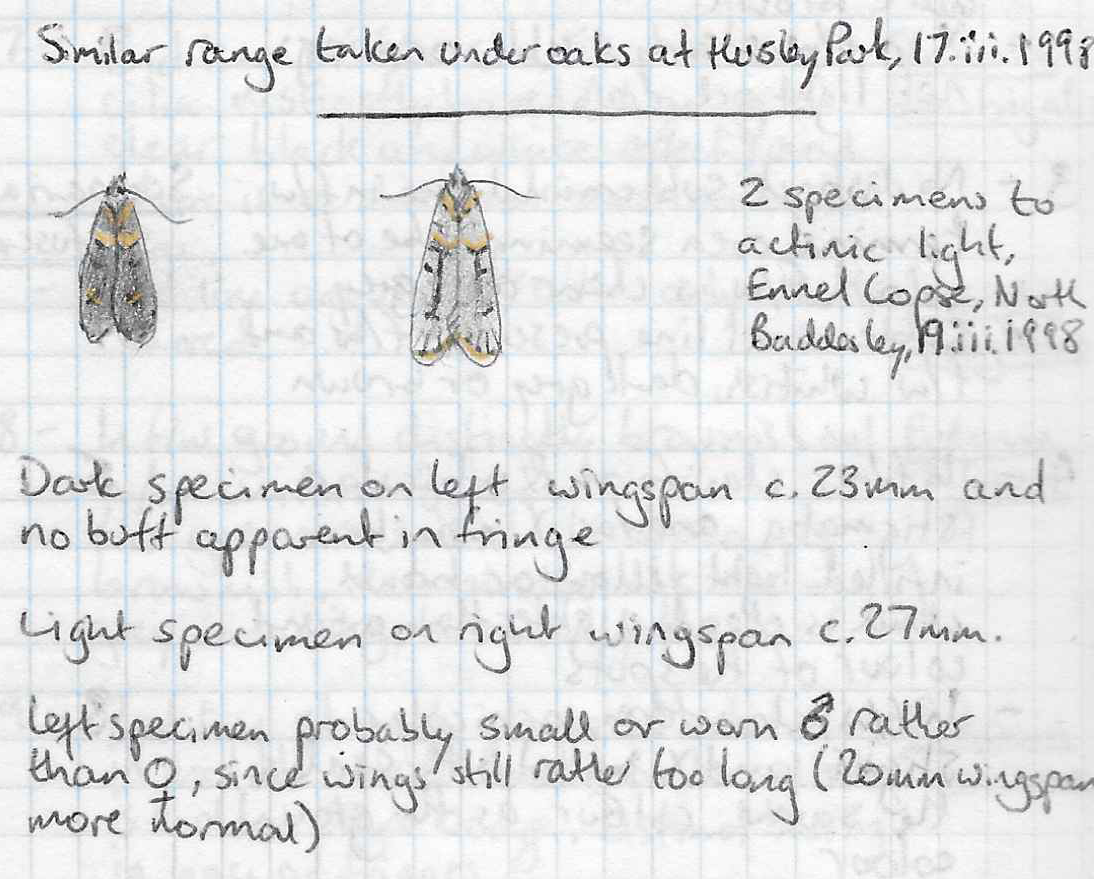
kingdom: Animalia
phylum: Arthropoda
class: Insecta
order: Lepidoptera
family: Lypusidae
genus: Diurnea
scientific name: Diurnea fagella
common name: March tubic
